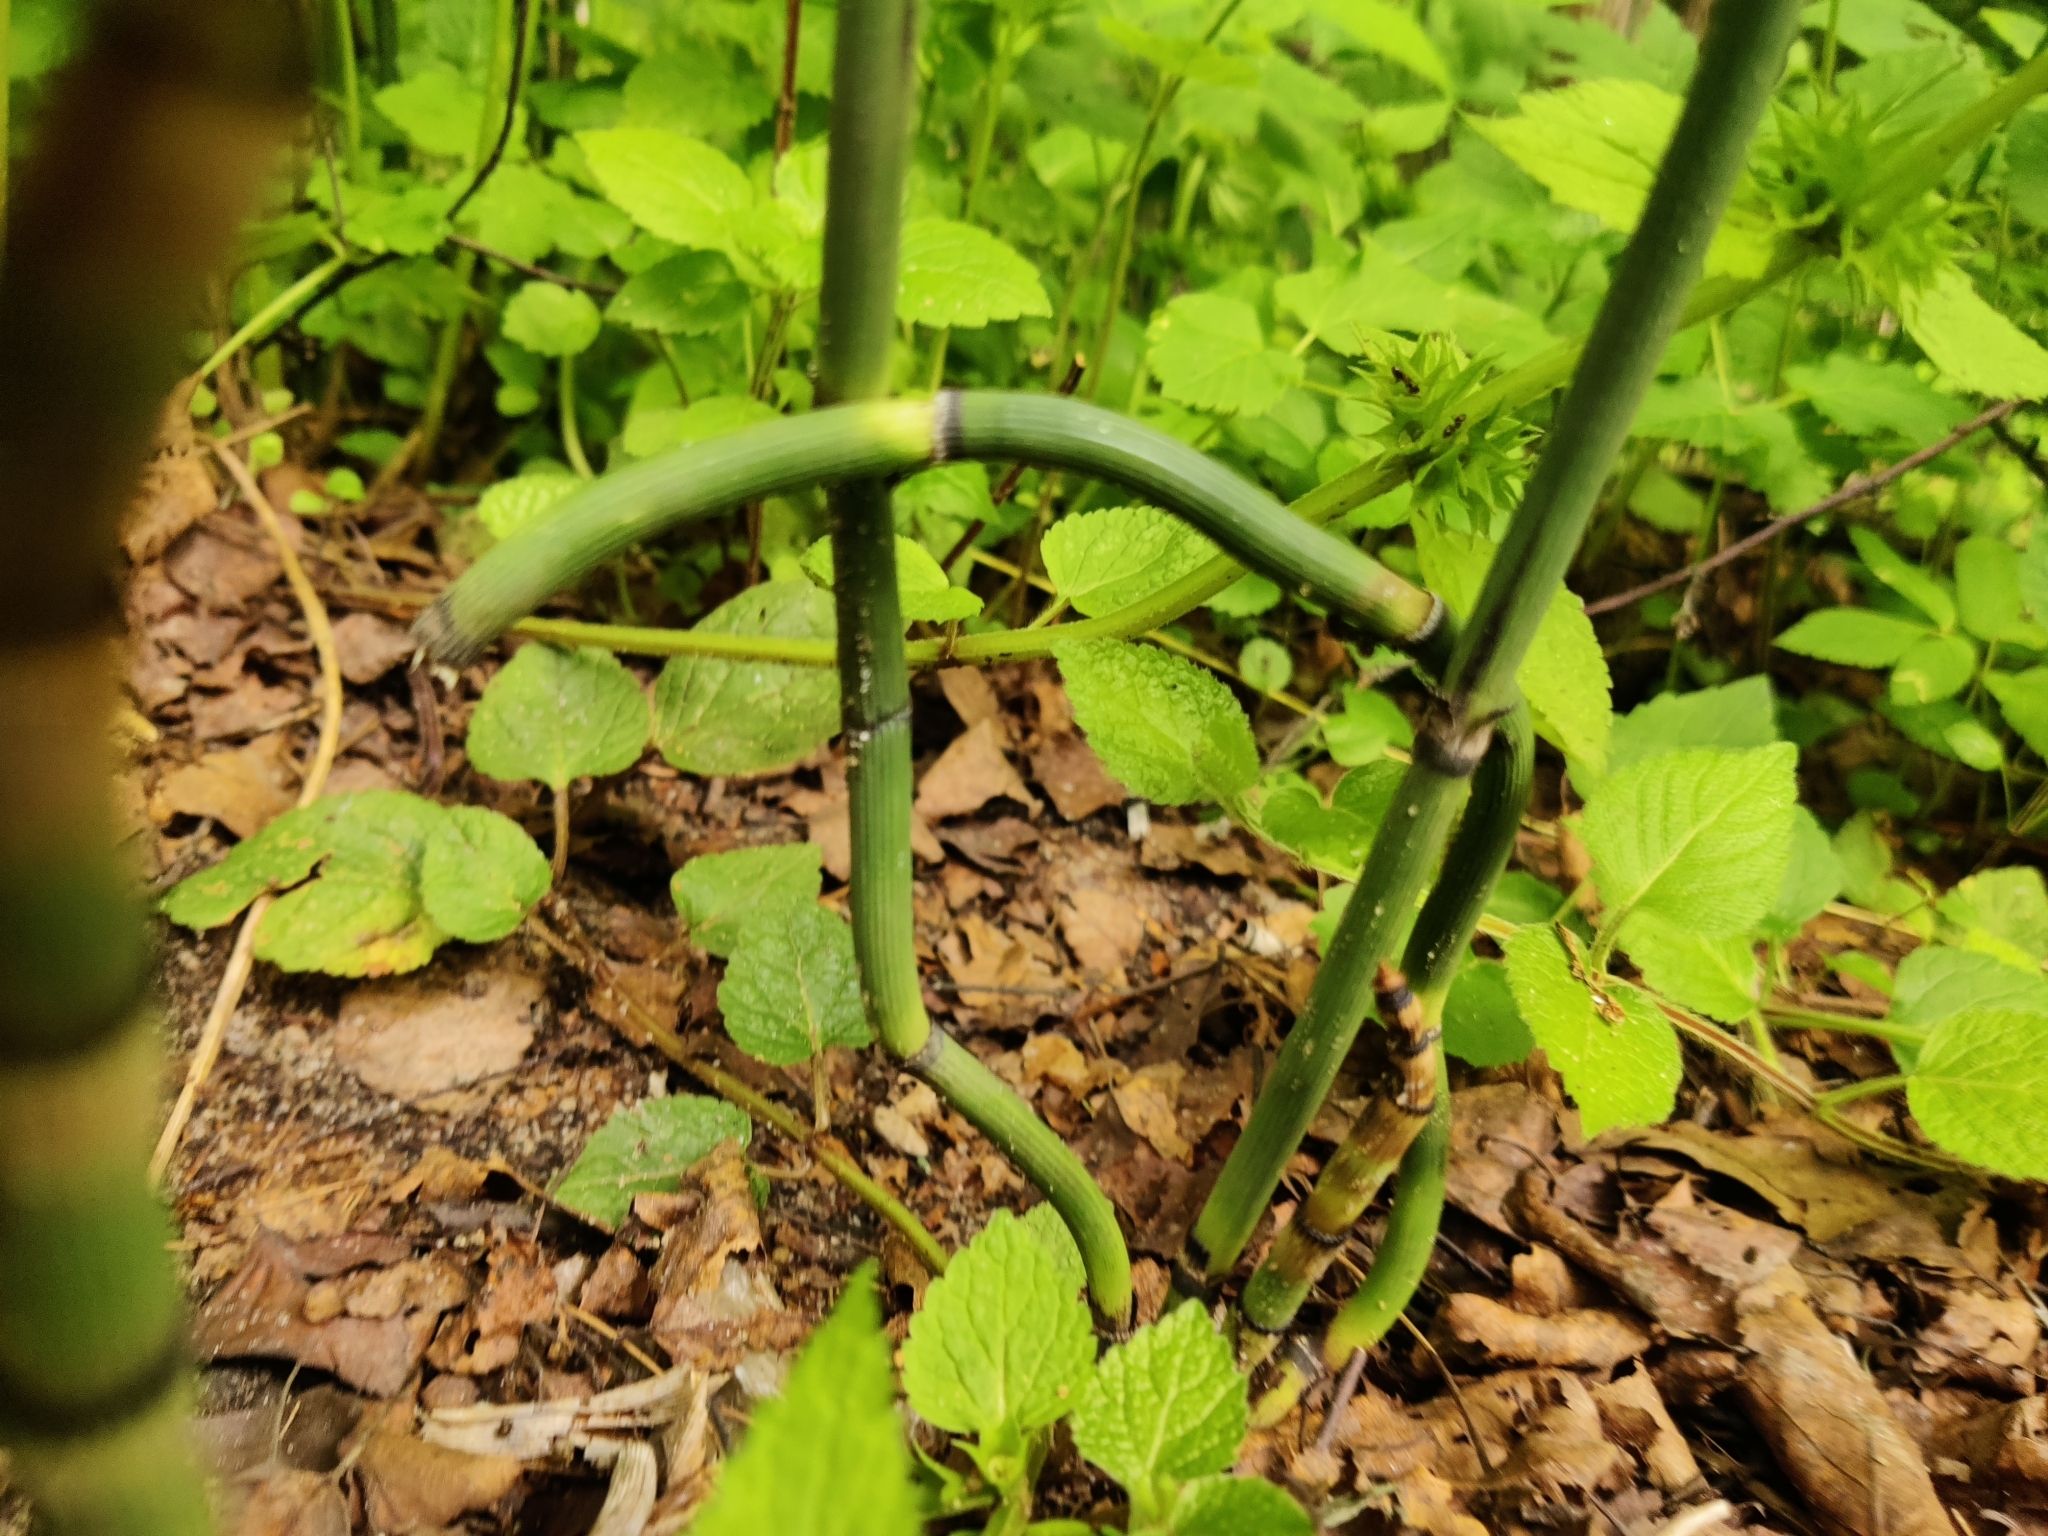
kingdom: Plantae
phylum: Tracheophyta
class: Polypodiopsida
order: Equisetales
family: Equisetaceae
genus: Equisetum
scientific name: Equisetum hyemale
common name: Rough horsetail
